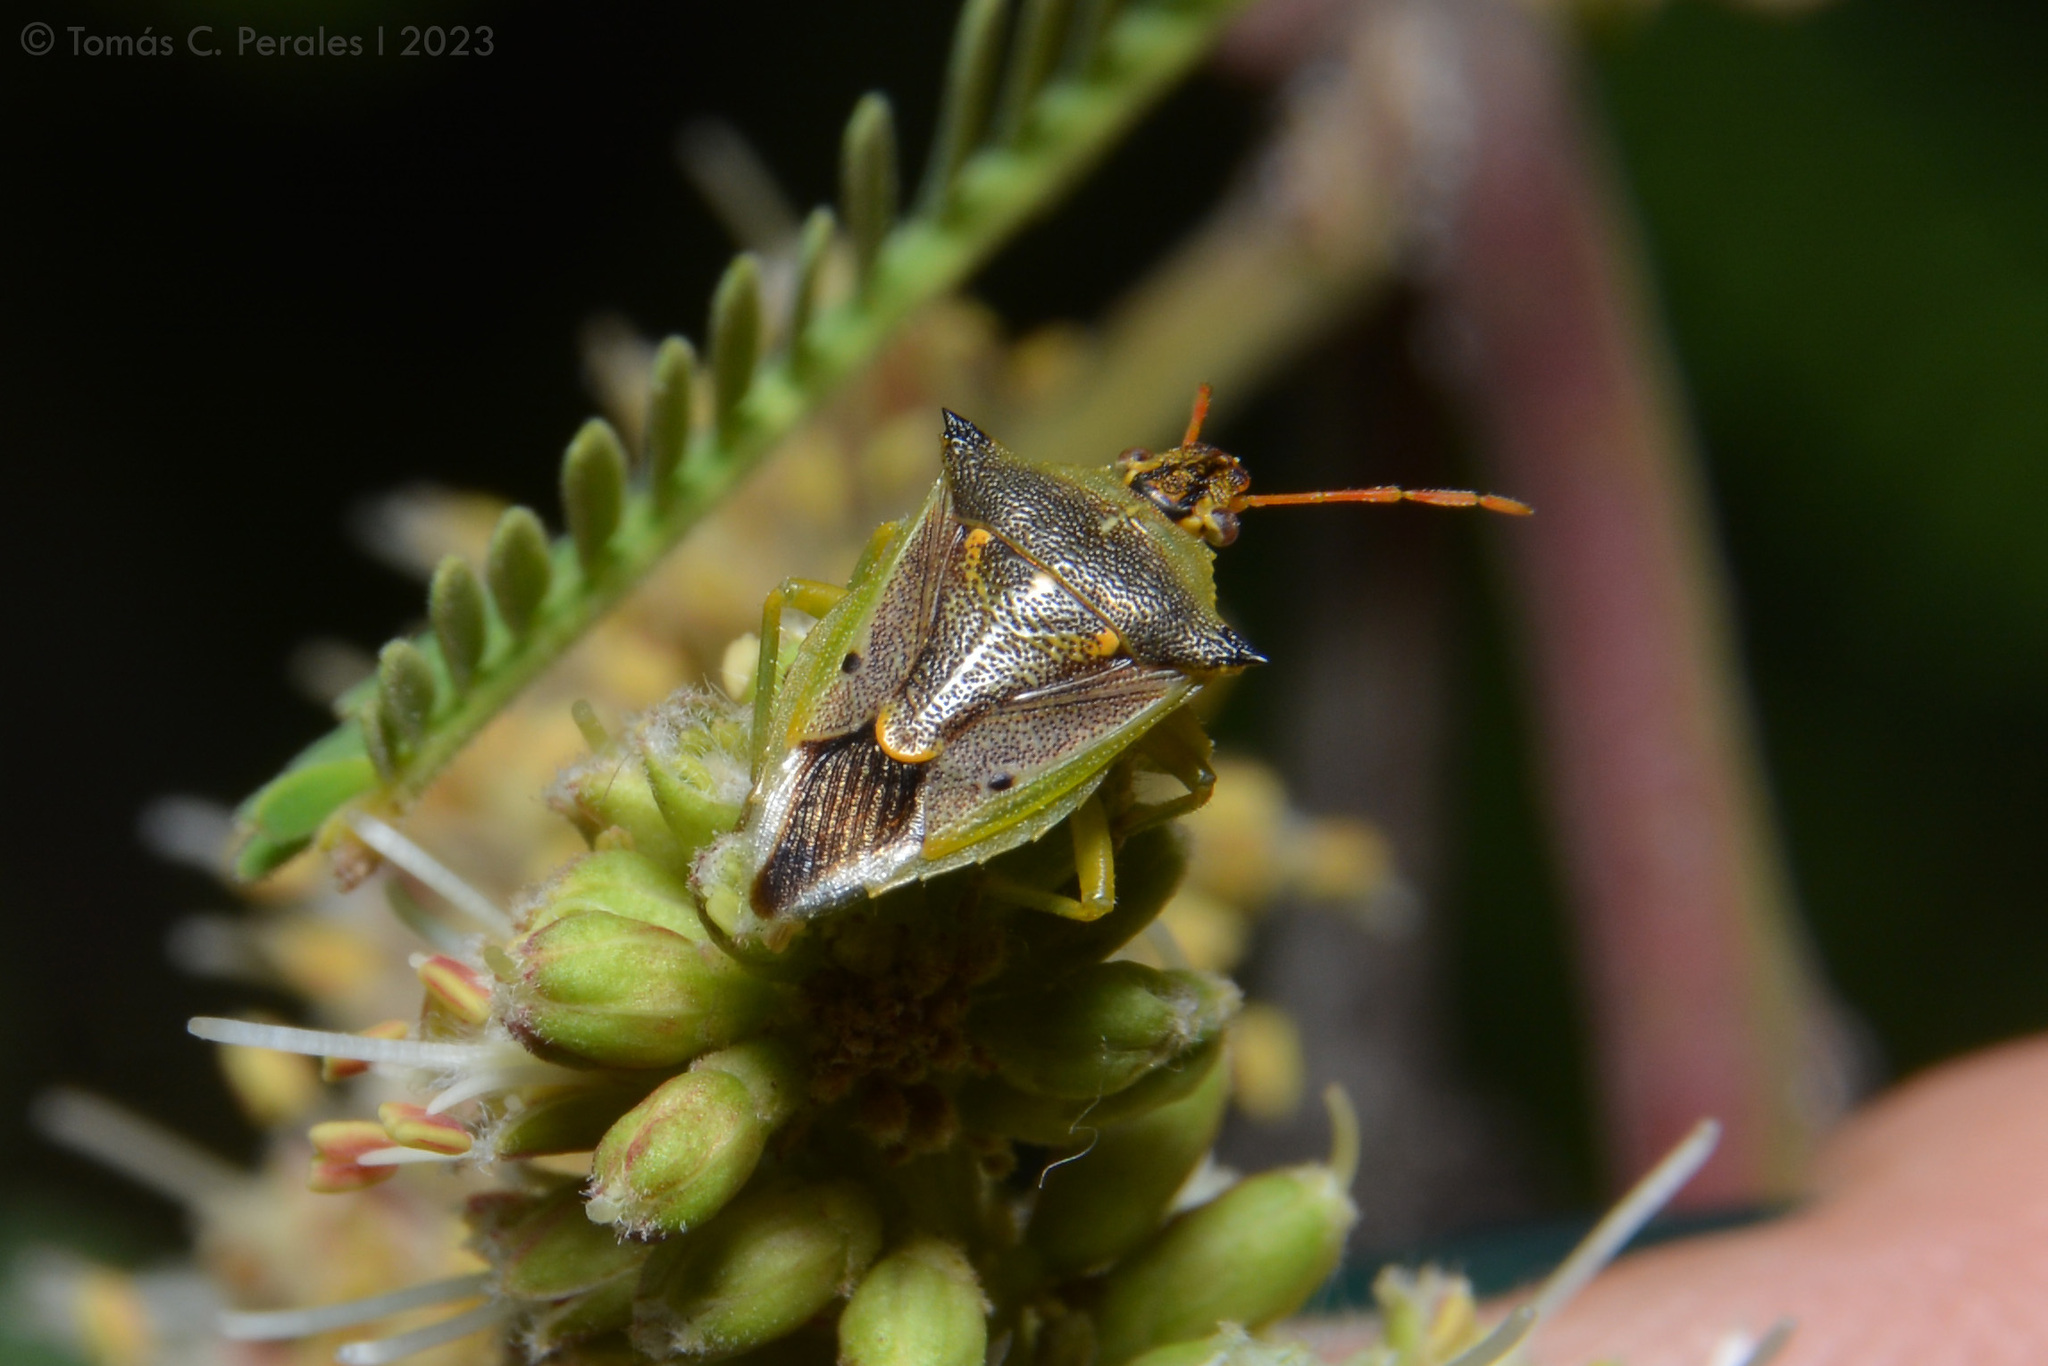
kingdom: Animalia
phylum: Arthropoda
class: Insecta
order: Hemiptera
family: Pentatomidae
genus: Tylospilus
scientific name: Tylospilus
